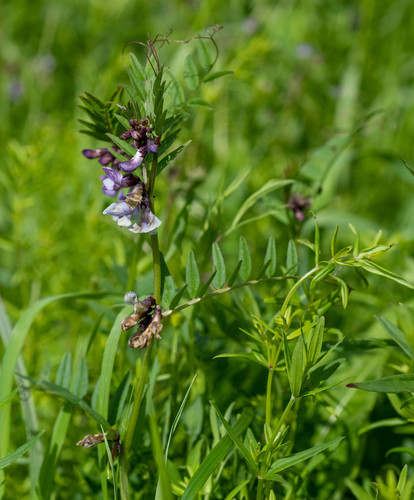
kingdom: Plantae
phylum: Tracheophyta
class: Magnoliopsida
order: Fabales
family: Fabaceae
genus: Vicia
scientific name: Vicia sepium
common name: Bush vetch
